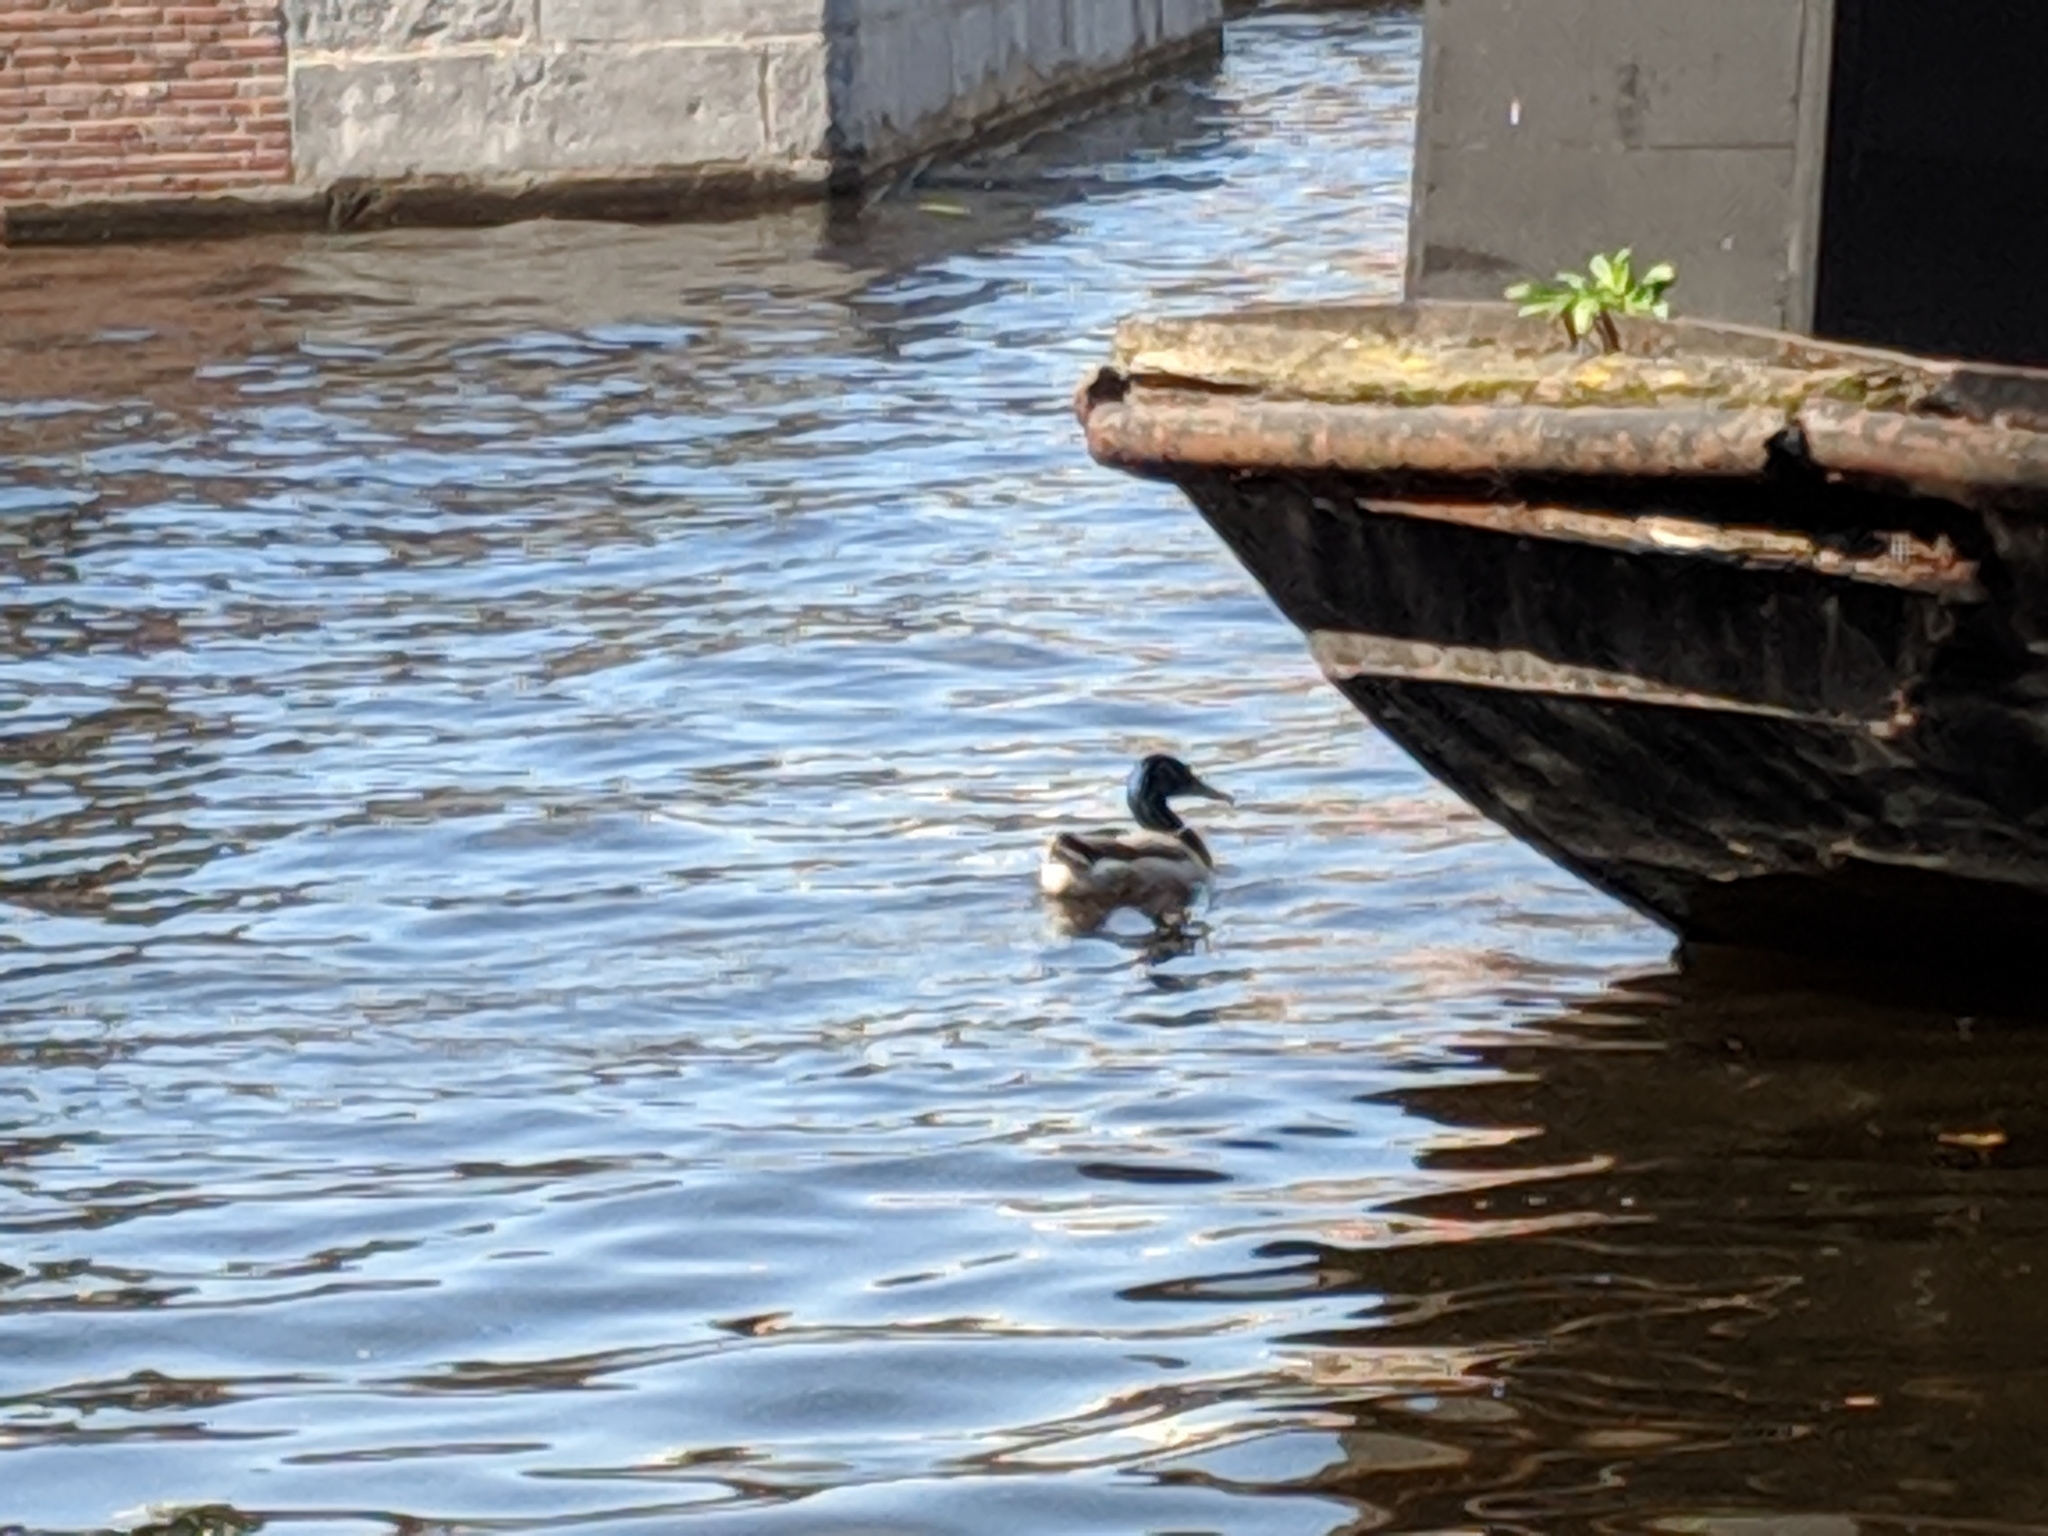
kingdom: Animalia
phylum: Chordata
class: Aves
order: Anseriformes
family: Anatidae
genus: Anas
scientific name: Anas platyrhynchos
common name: Mallard
